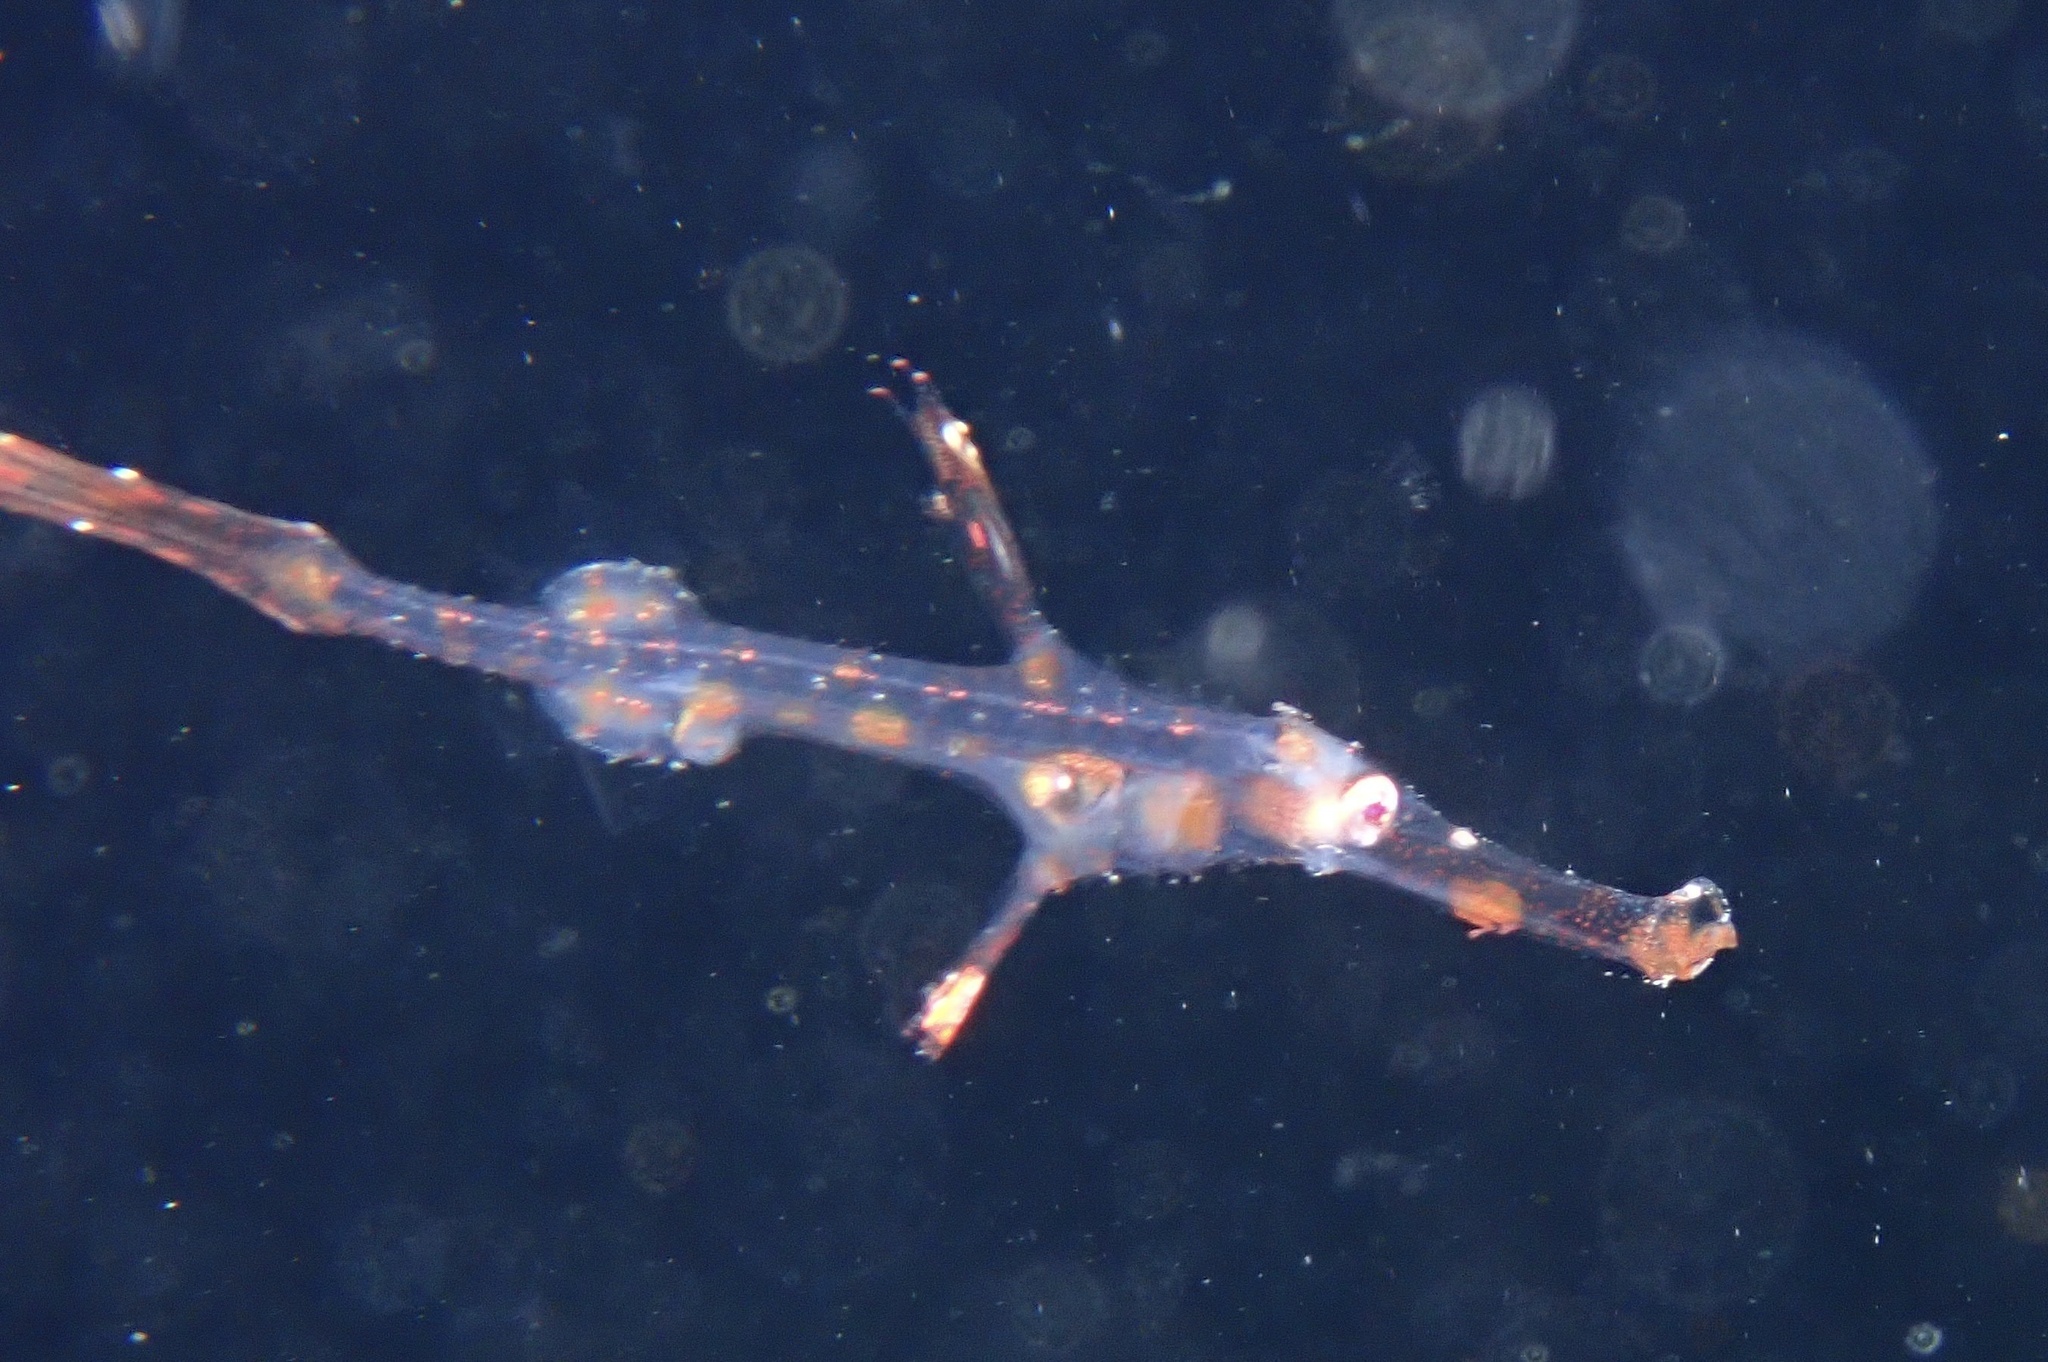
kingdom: Animalia
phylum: Chordata
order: Syngnathiformes
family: Solenostomidae
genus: Solenostomus
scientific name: Solenostomus leptosoma
